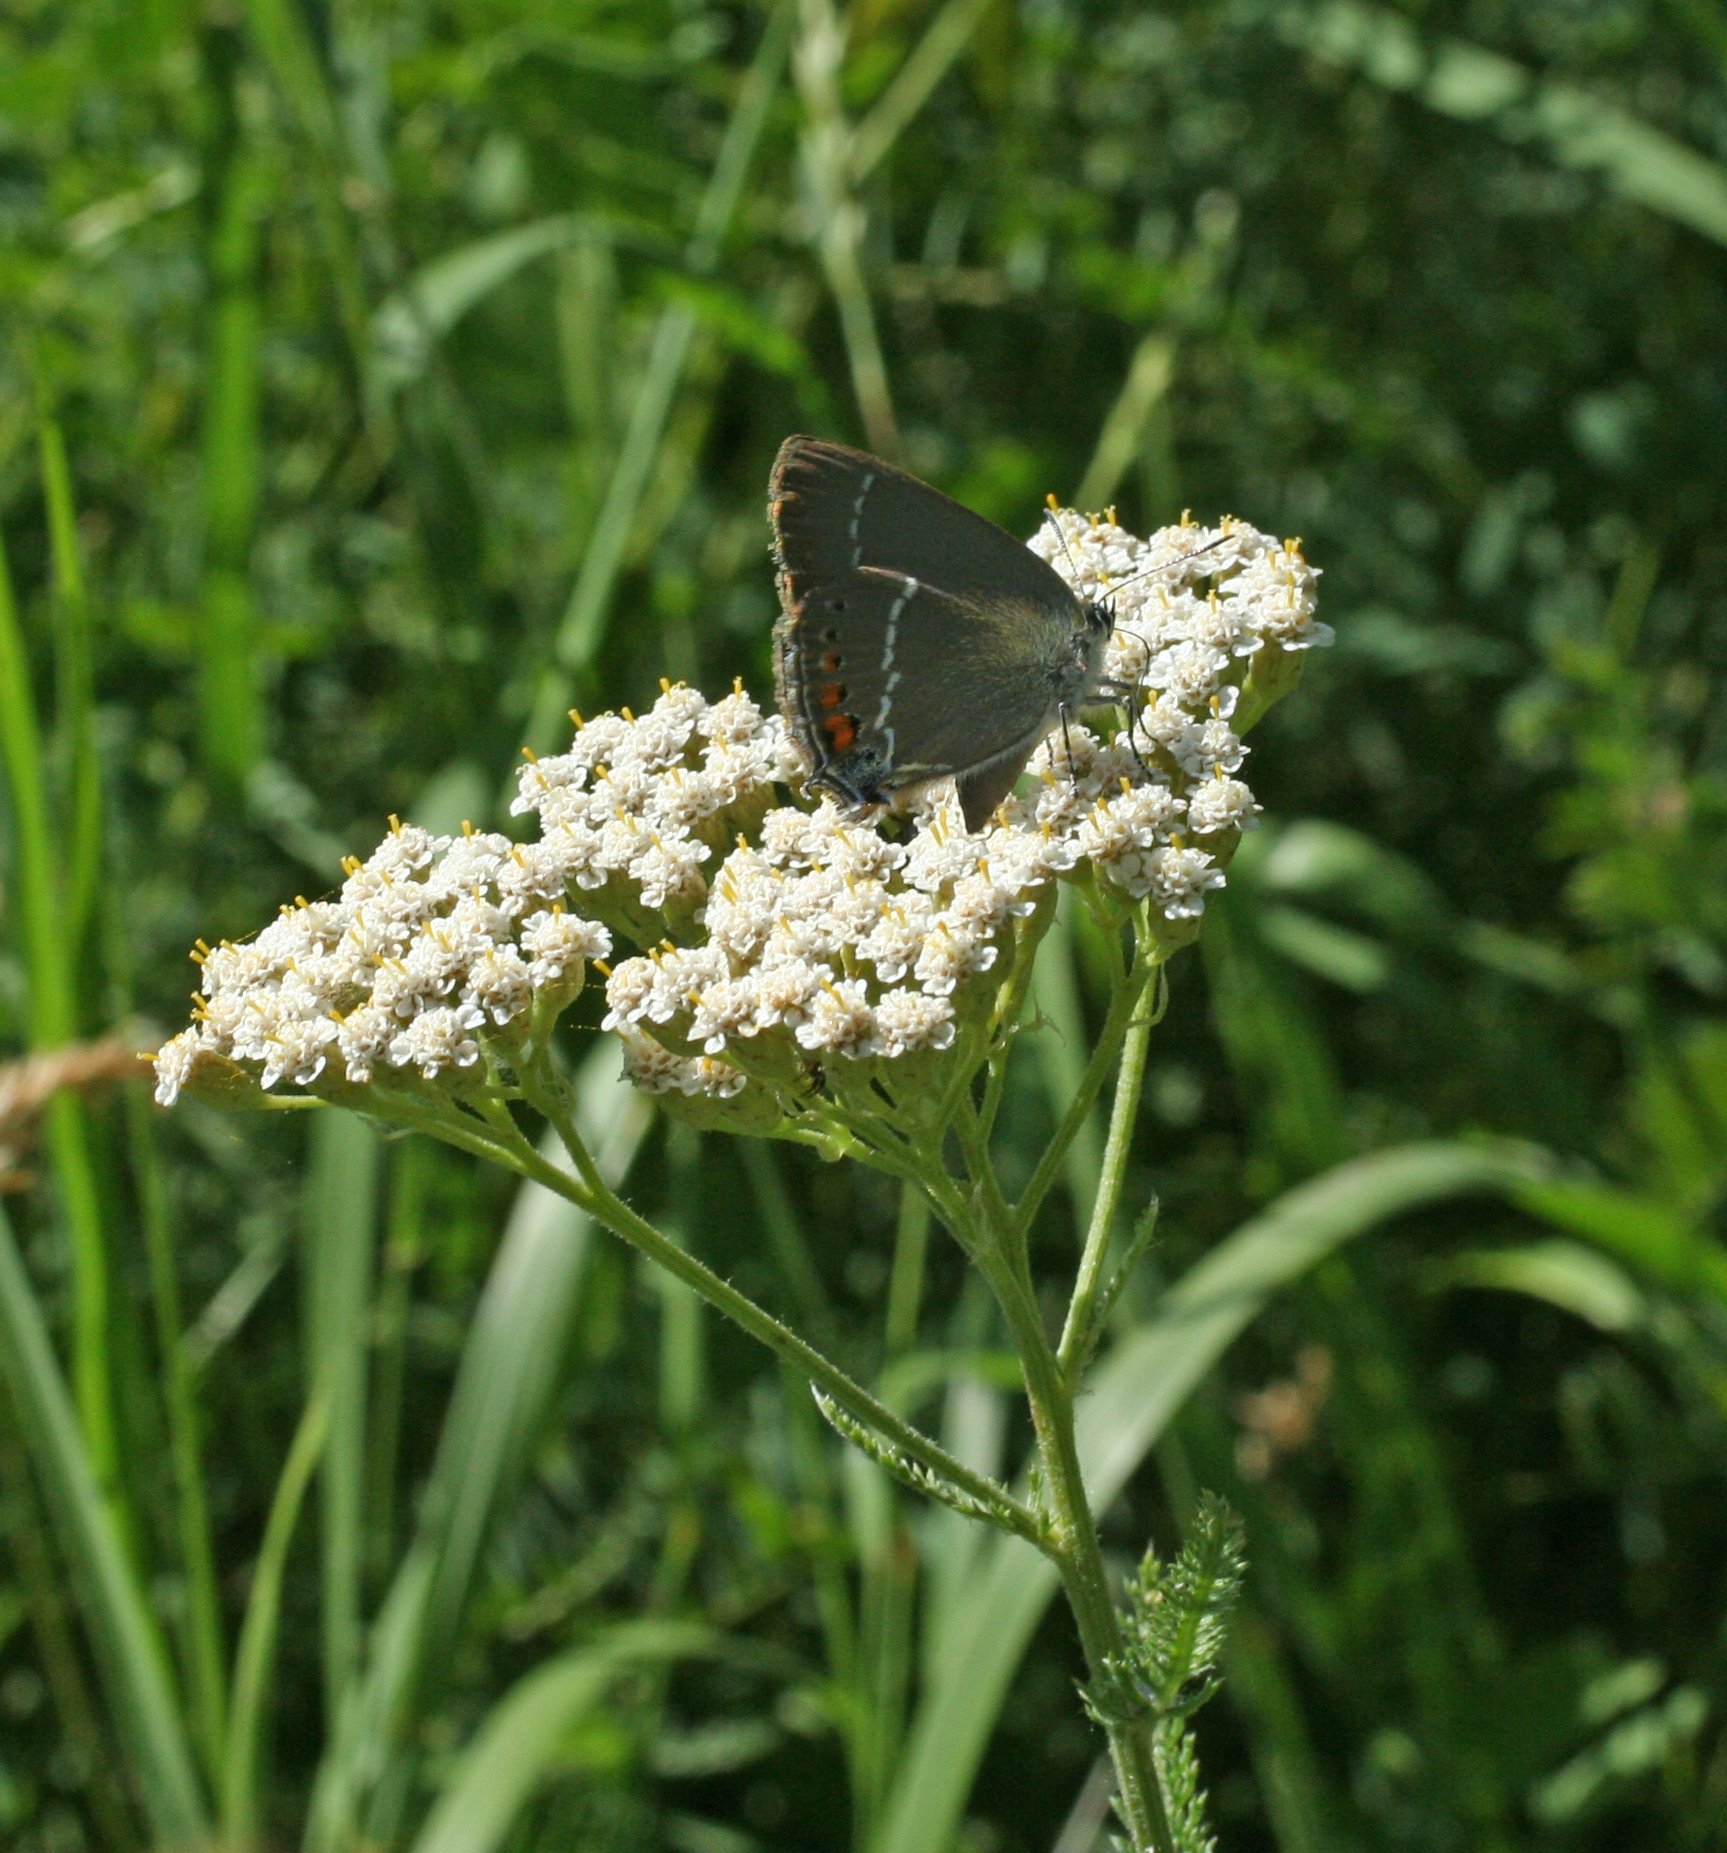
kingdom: Animalia
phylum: Arthropoda
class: Insecta
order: Lepidoptera
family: Lycaenidae
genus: Tuttiola
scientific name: Tuttiola spini
